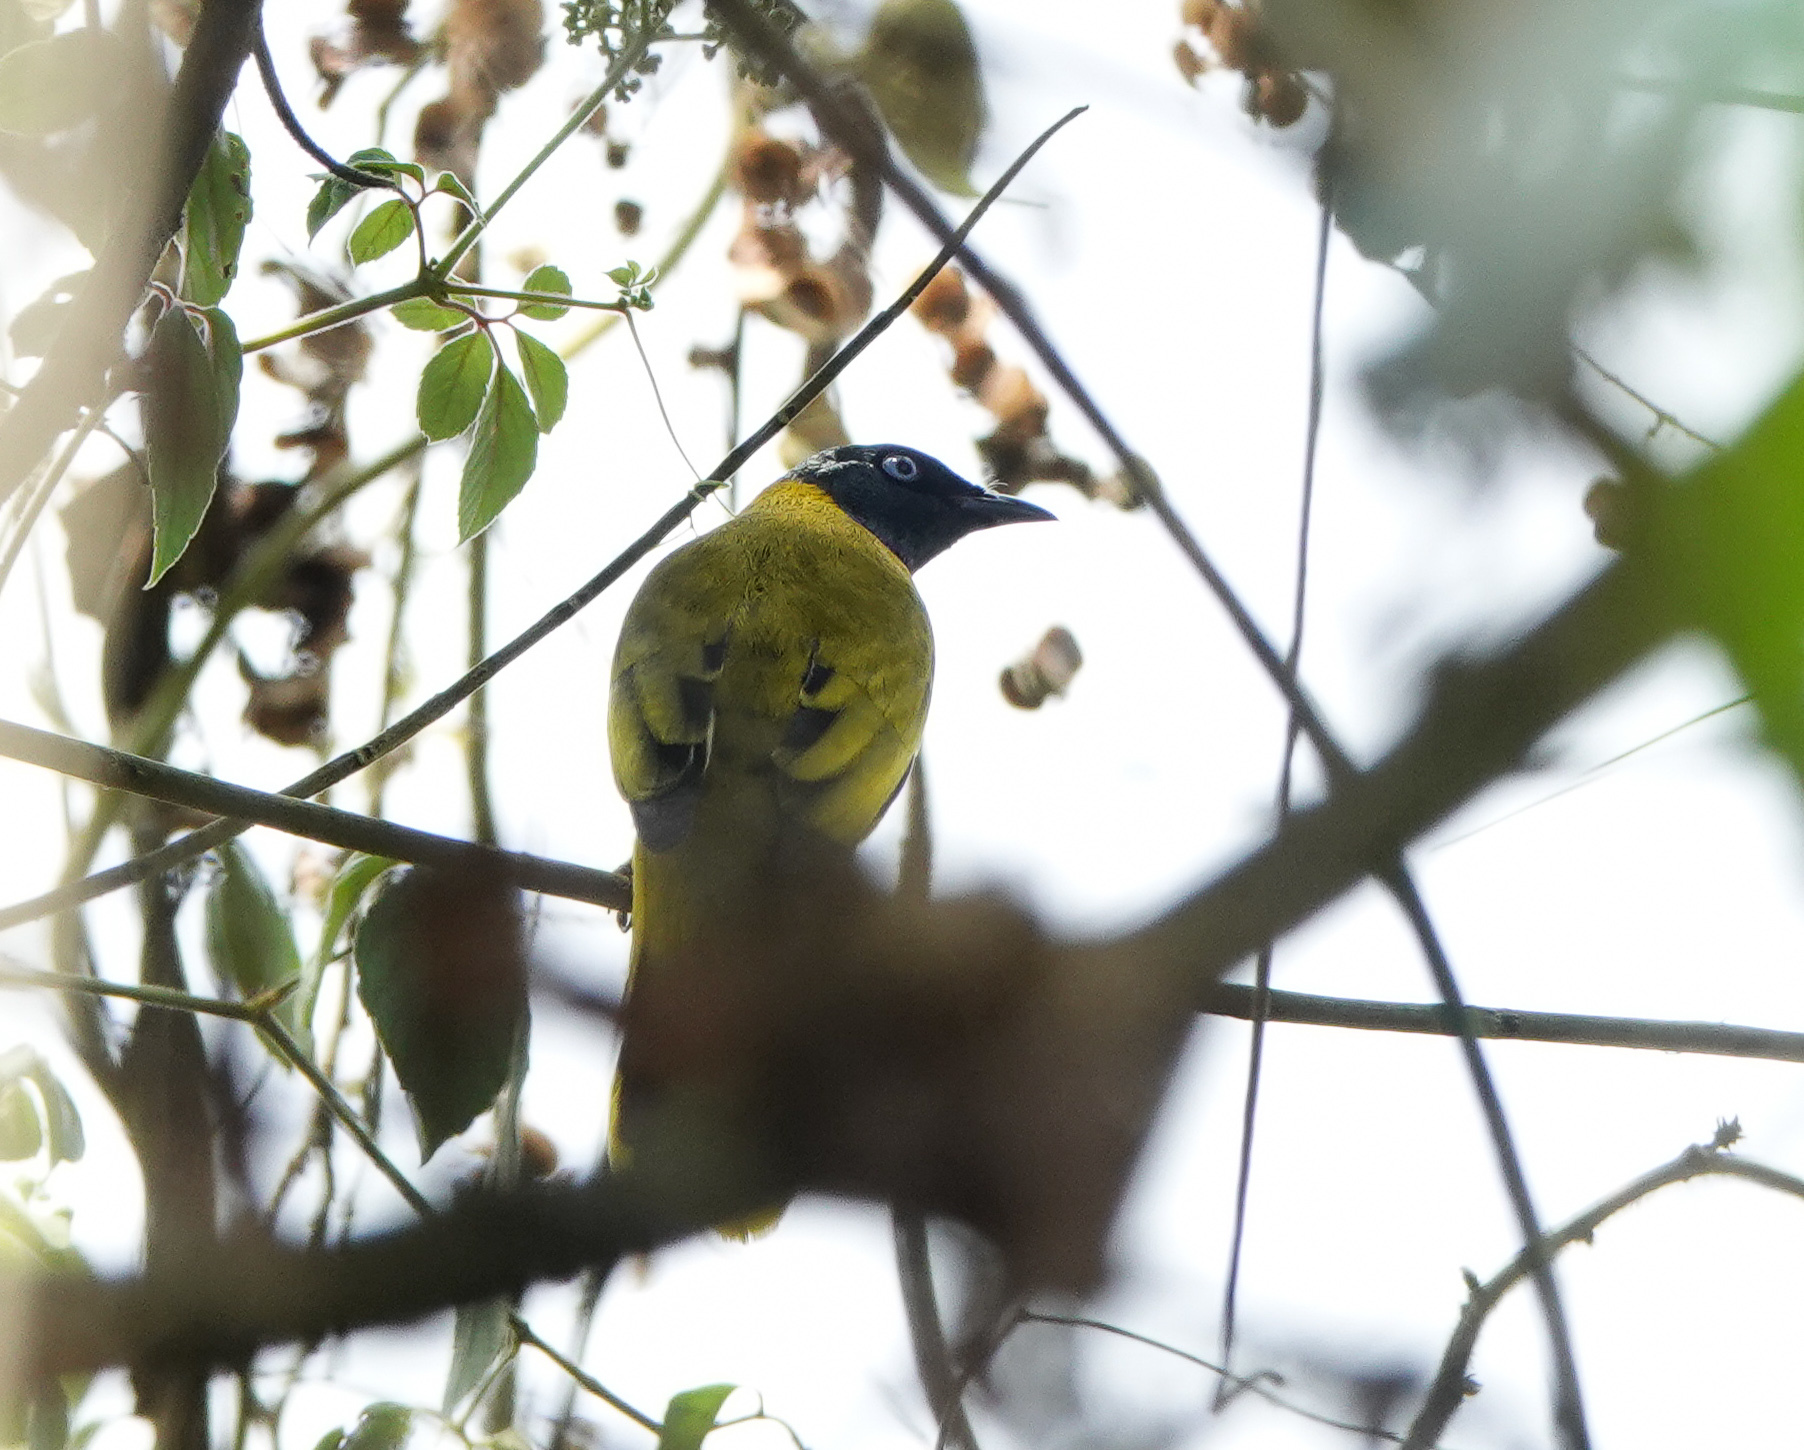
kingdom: Animalia
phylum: Chordata
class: Aves
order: Passeriformes
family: Pycnonotidae
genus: Microtarsus
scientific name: Microtarsus
